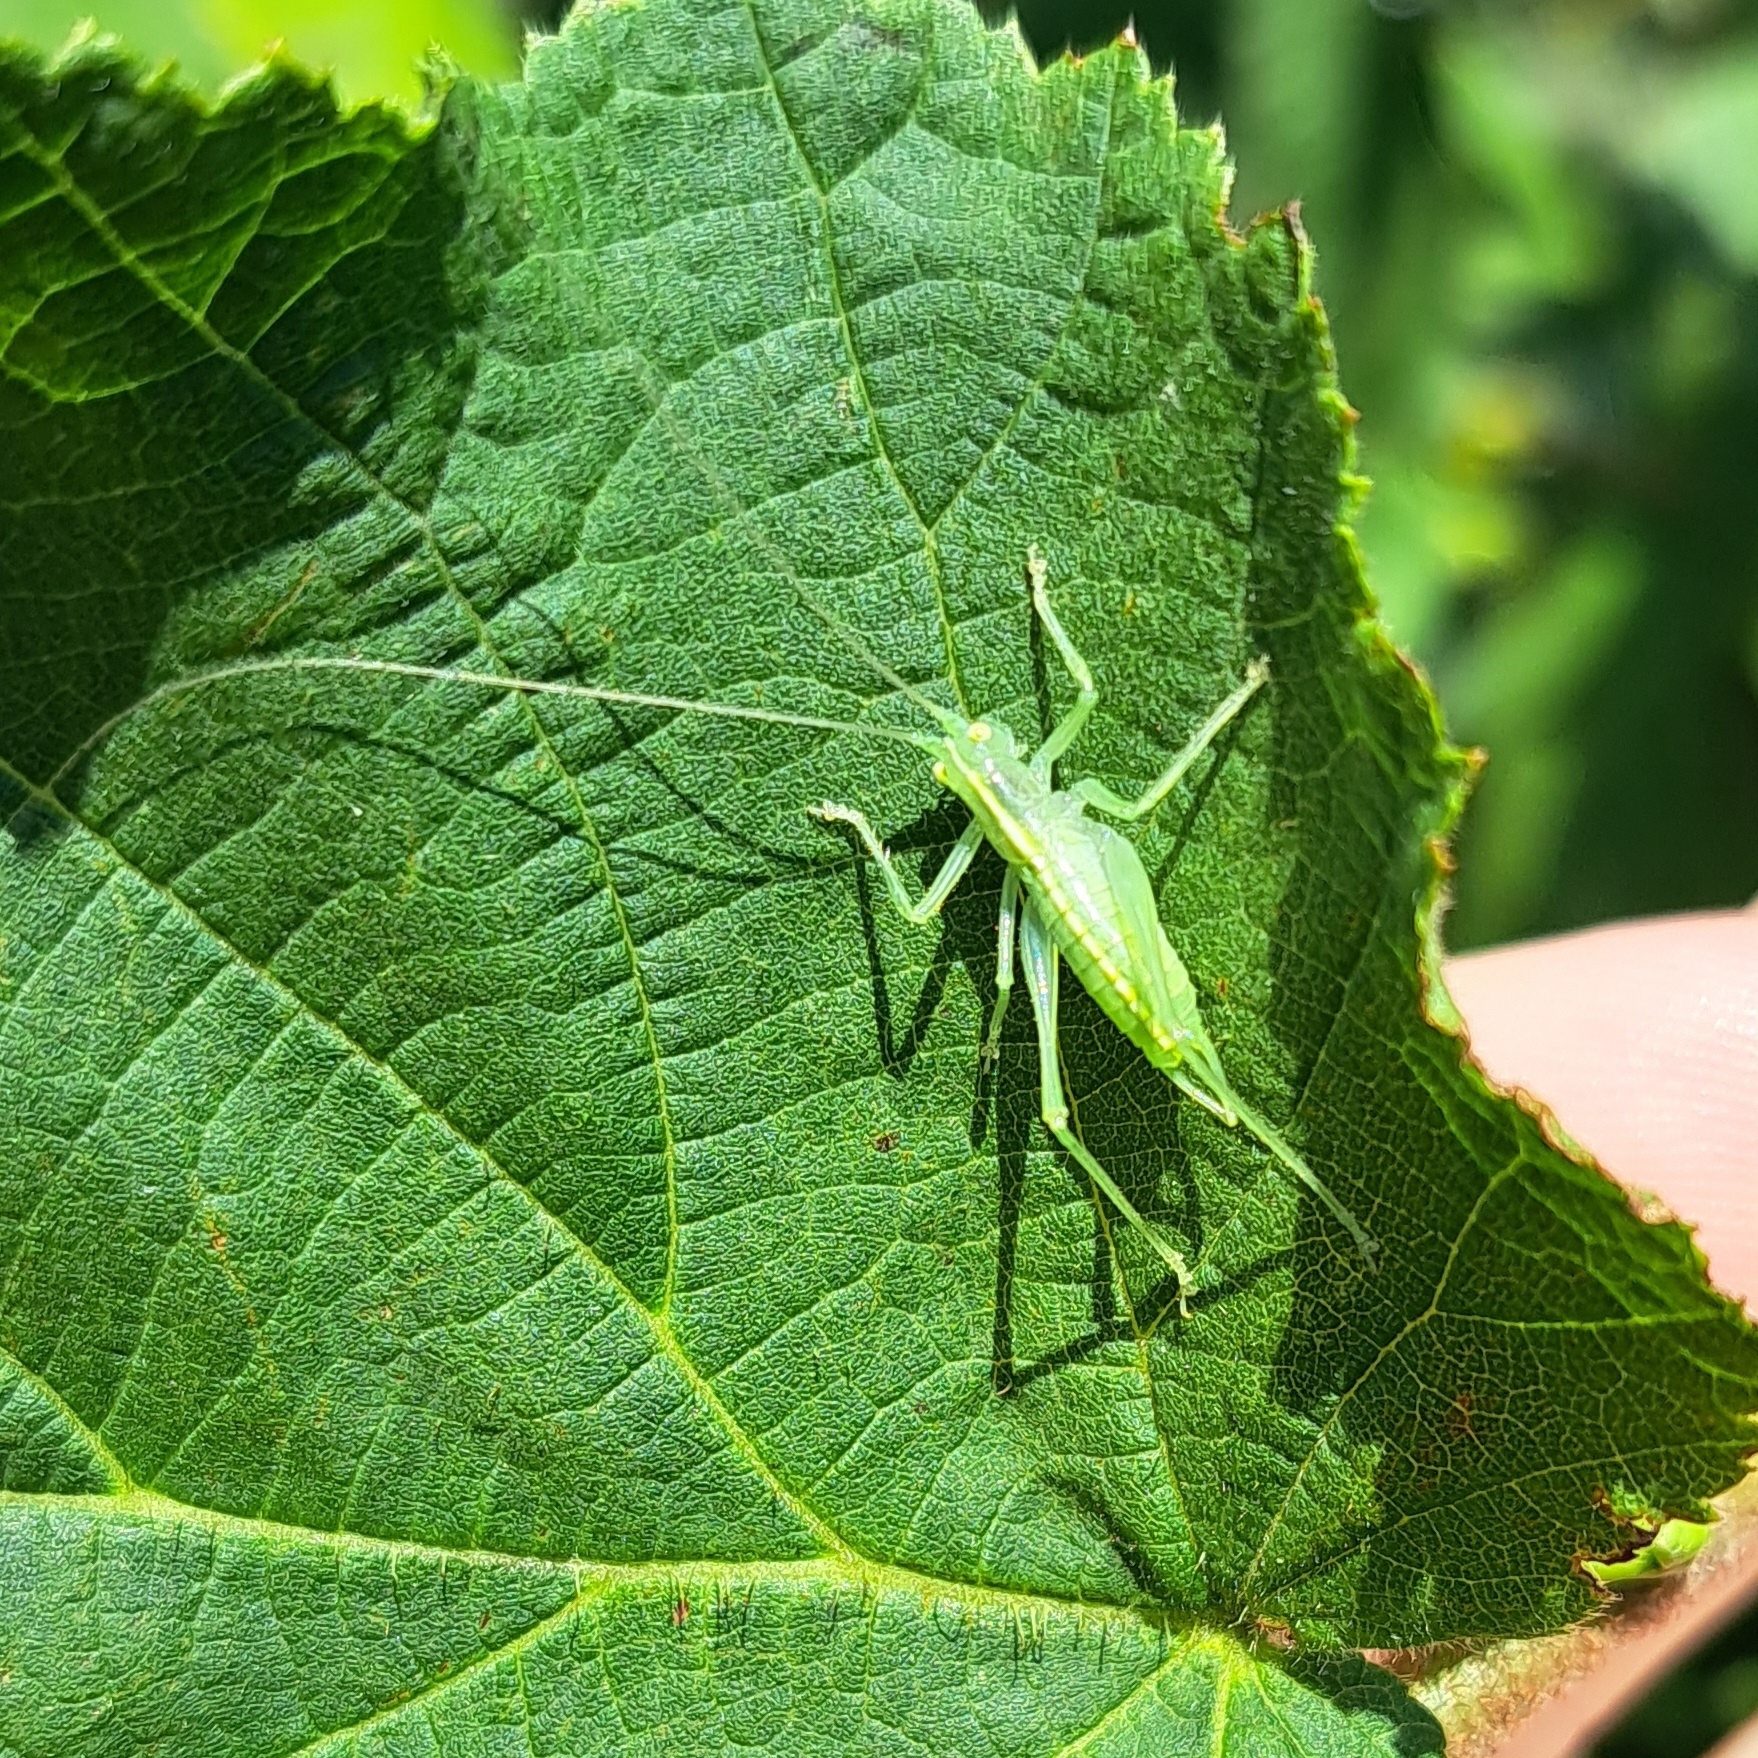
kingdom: Animalia
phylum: Arthropoda
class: Insecta
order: Orthoptera
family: Tettigoniidae
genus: Meconema
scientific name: Meconema meridionale
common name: Southern oak bush-cricket
